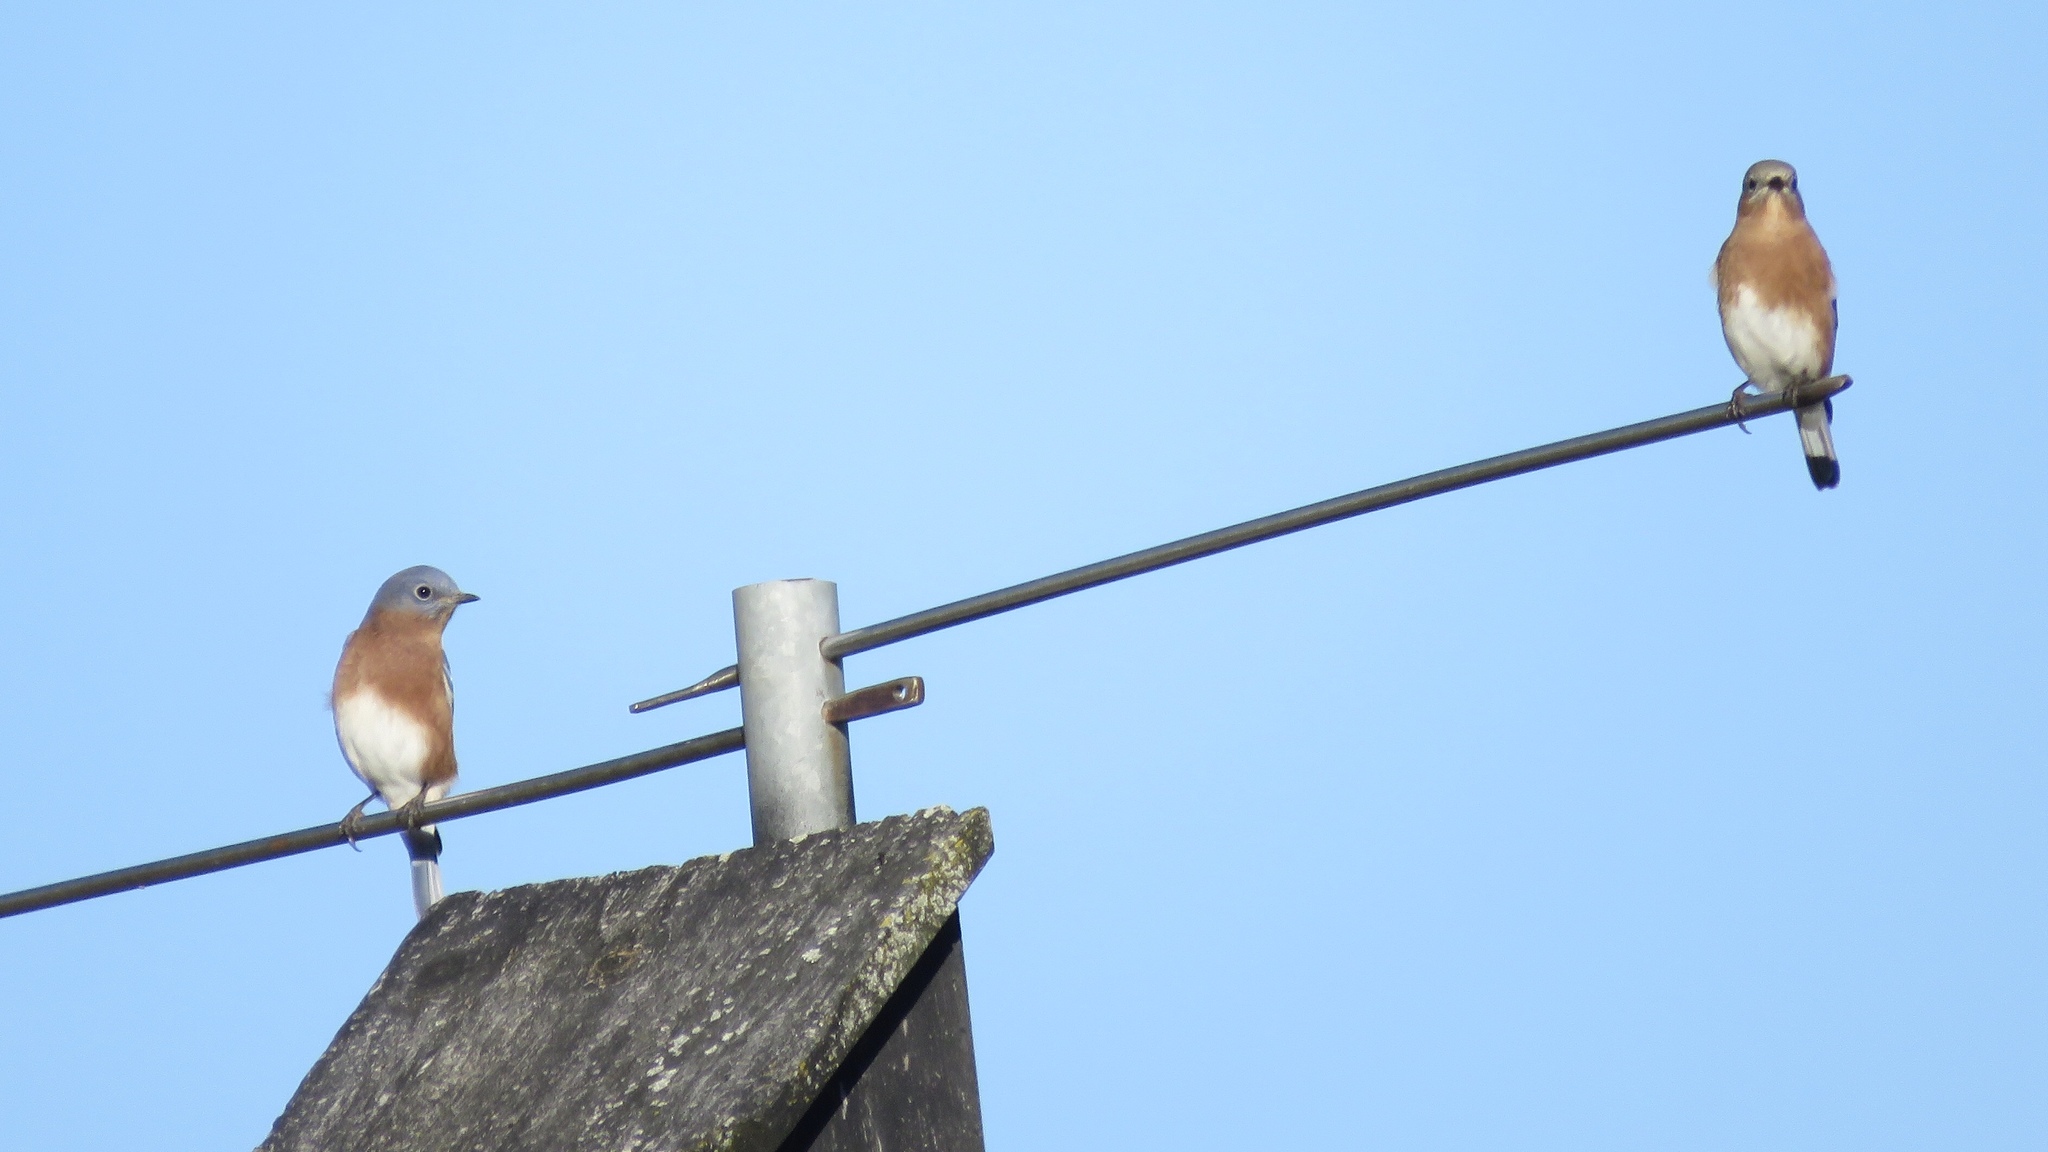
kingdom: Animalia
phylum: Chordata
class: Aves
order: Passeriformes
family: Turdidae
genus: Sialia
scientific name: Sialia sialis
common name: Eastern bluebird
